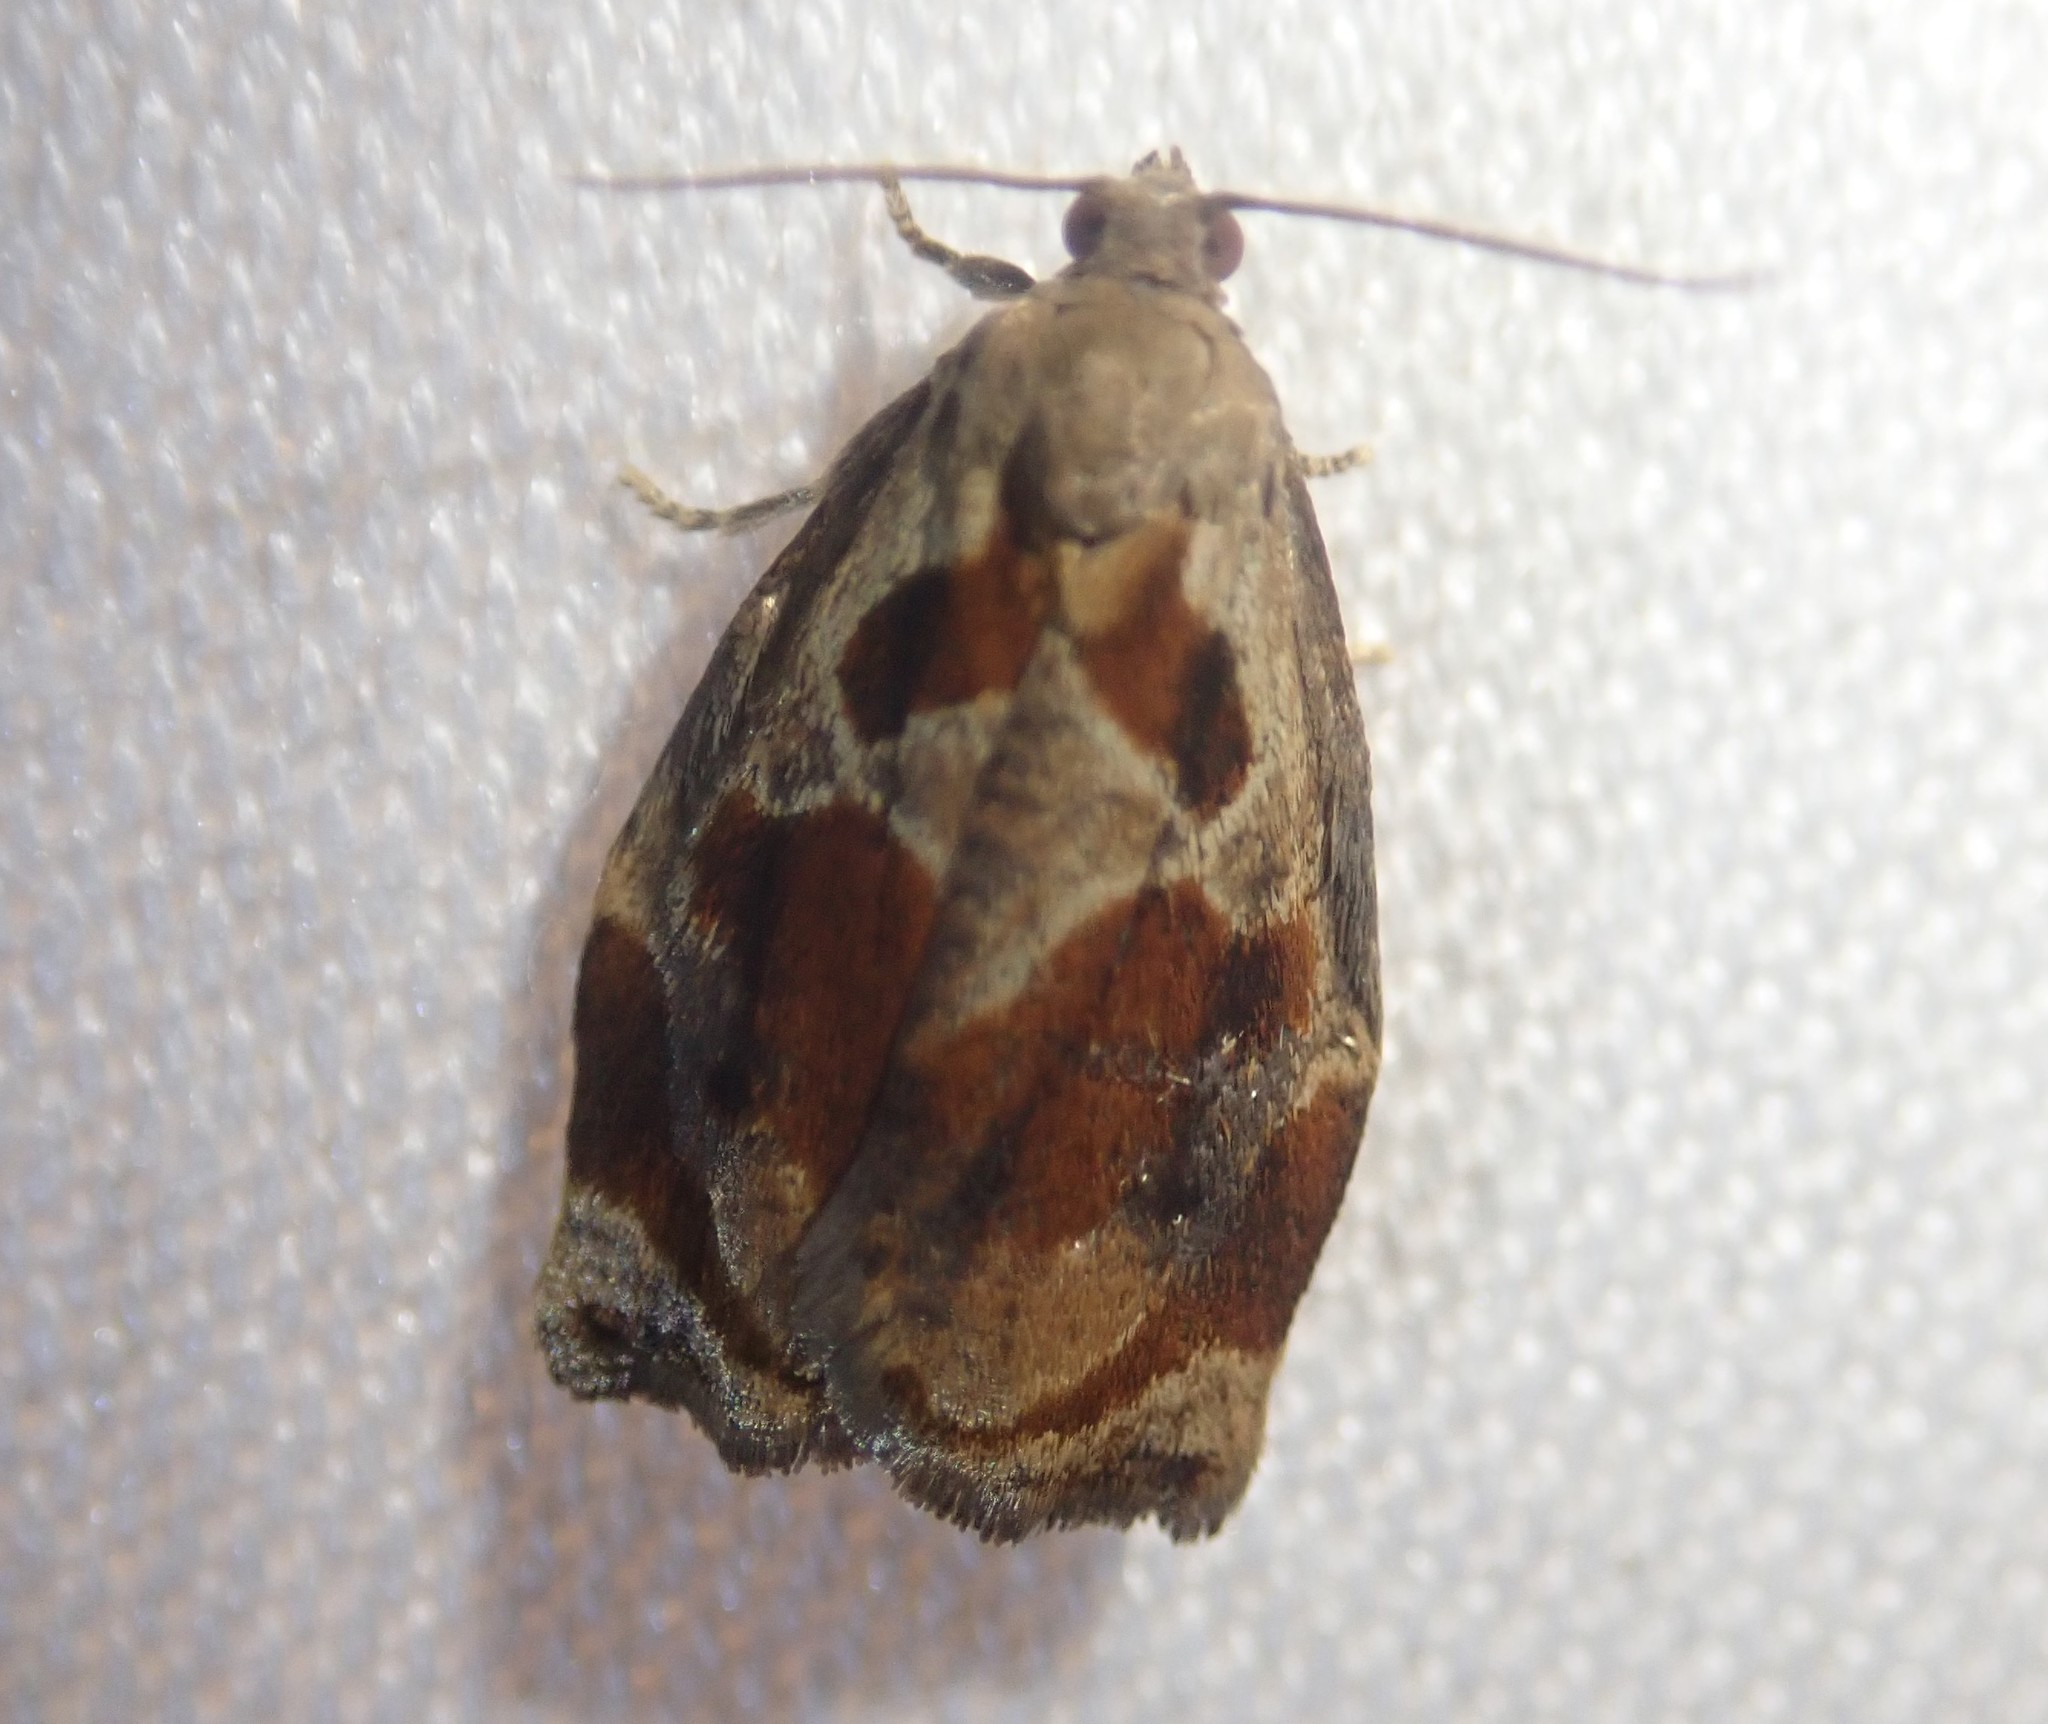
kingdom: Animalia
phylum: Arthropoda
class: Insecta
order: Lepidoptera
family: Tortricidae
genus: Archips
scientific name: Archips crataegana
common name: Brown oak tortrix
